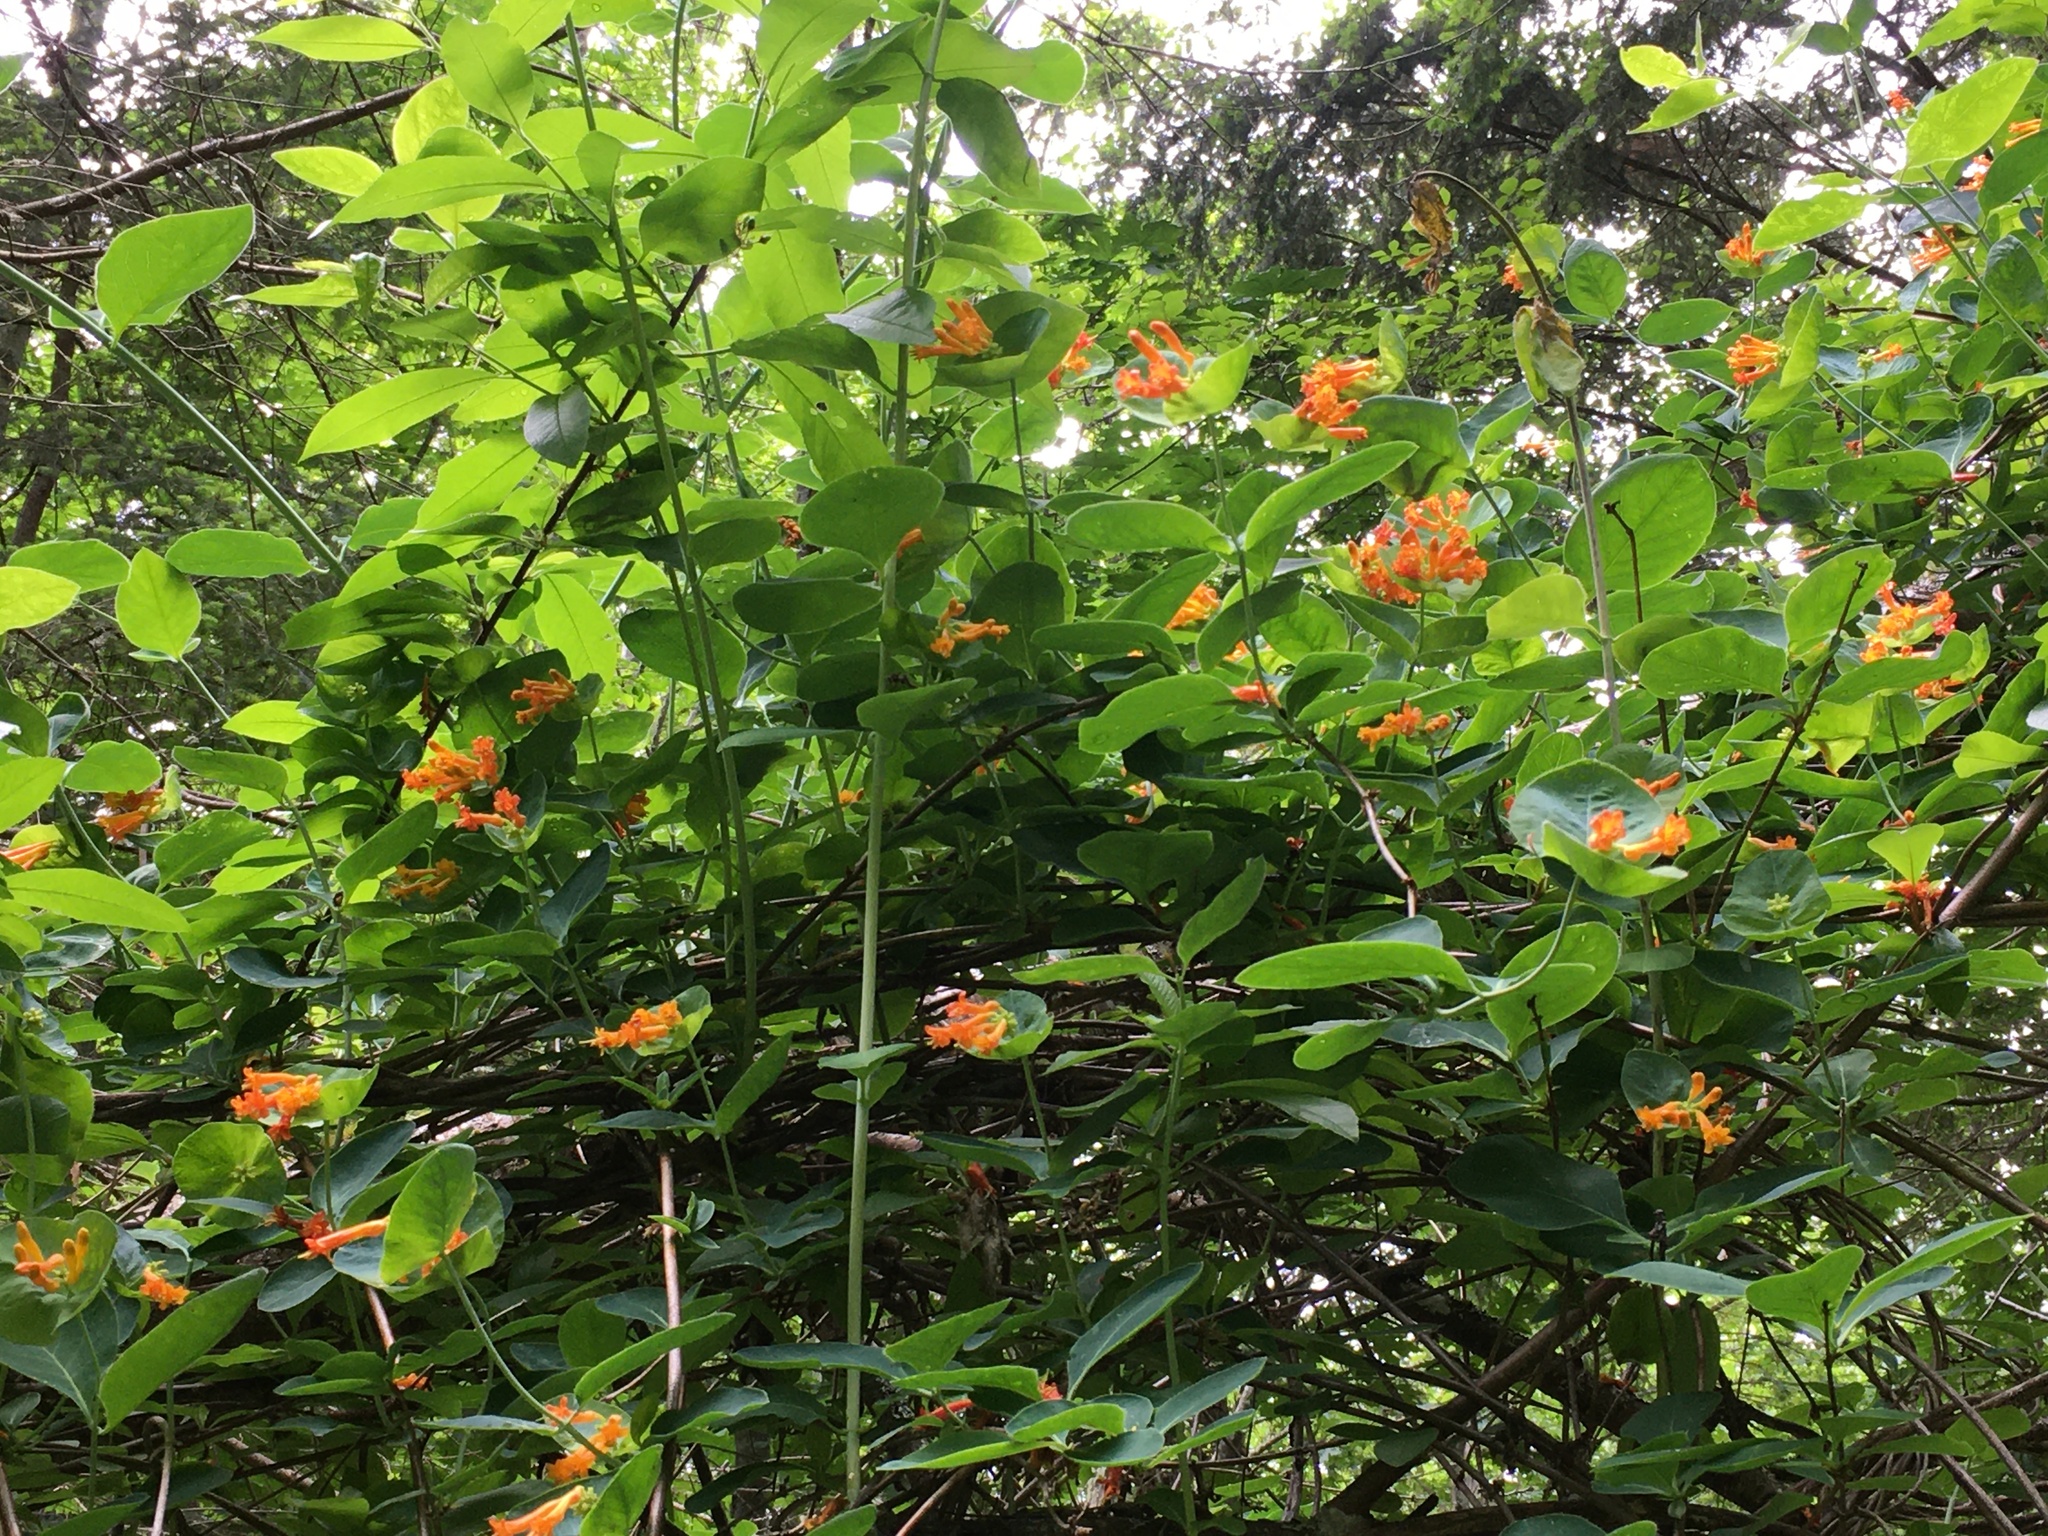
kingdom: Plantae
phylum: Tracheophyta
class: Magnoliopsida
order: Dipsacales
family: Caprifoliaceae
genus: Lonicera
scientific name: Lonicera ciliosa
